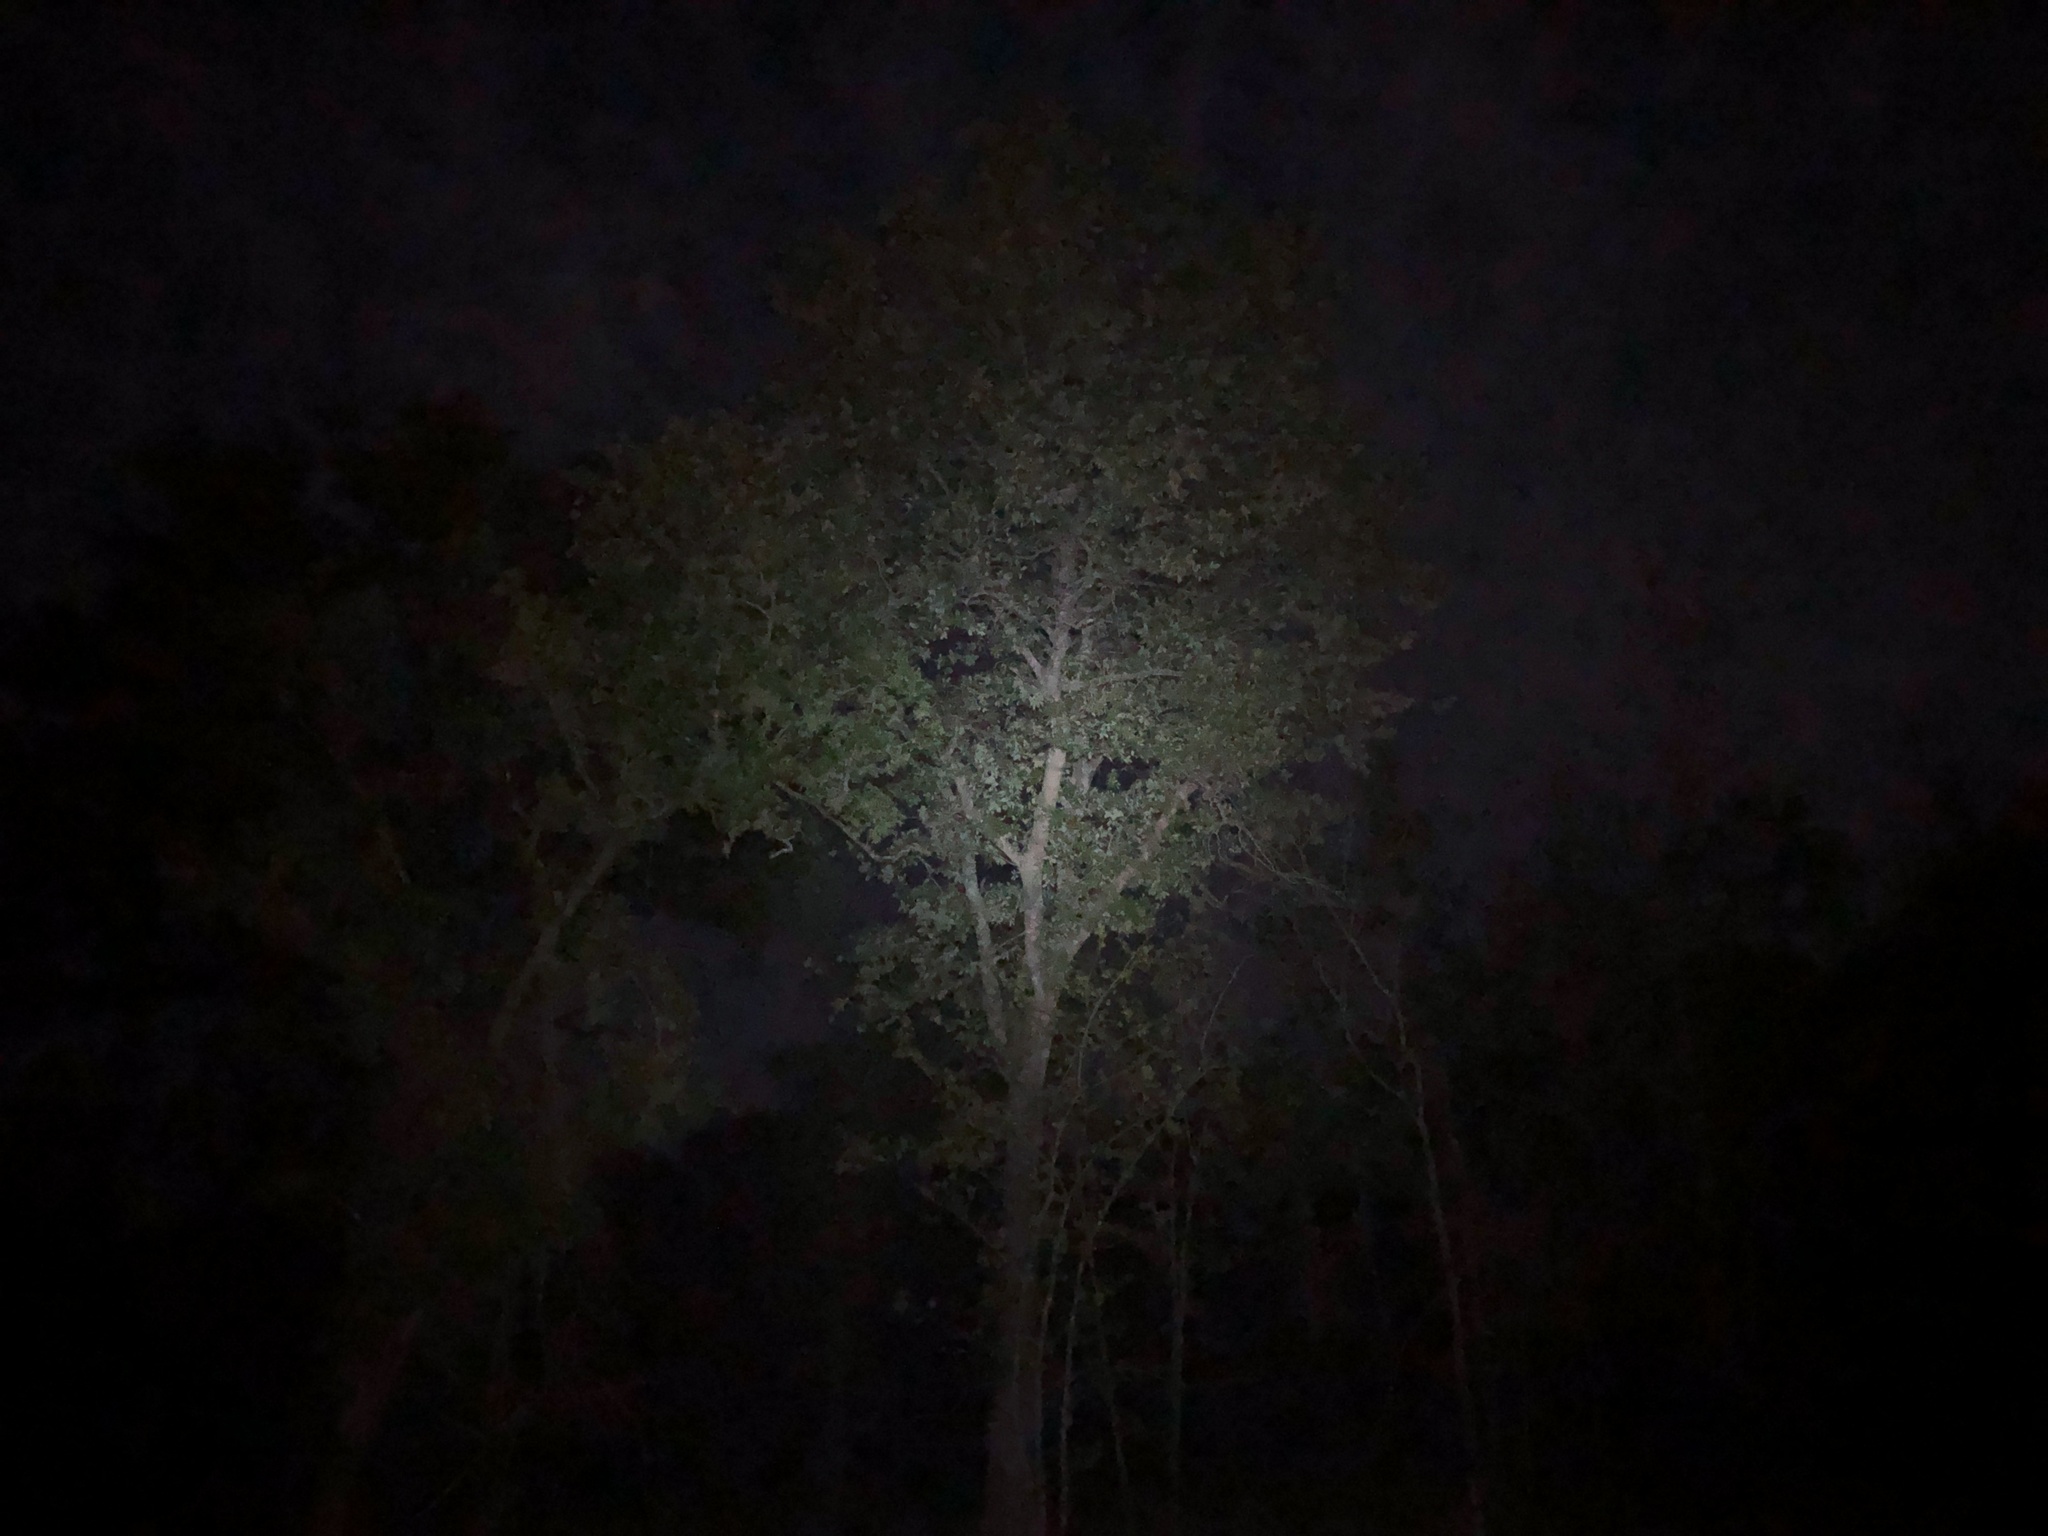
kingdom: Animalia
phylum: Chordata
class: Aves
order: Caprimulgiformes
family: Caprimulgidae
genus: Antrostomus
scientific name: Antrostomus carolinensis
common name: Chuck-will's-widow
